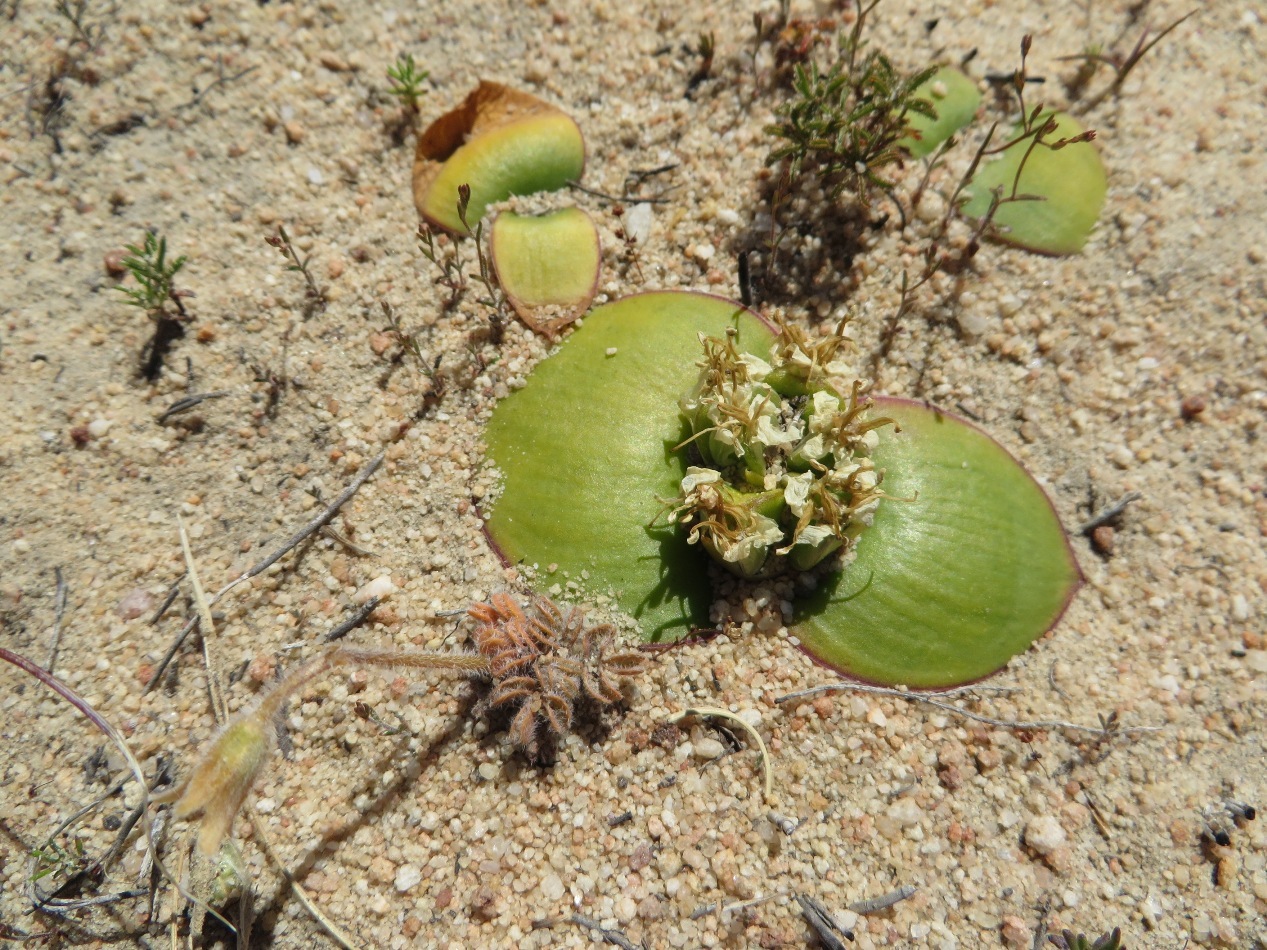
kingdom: Plantae
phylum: Tracheophyta
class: Liliopsida
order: Asparagales
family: Asparagaceae
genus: Massonia
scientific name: Massonia triflora
